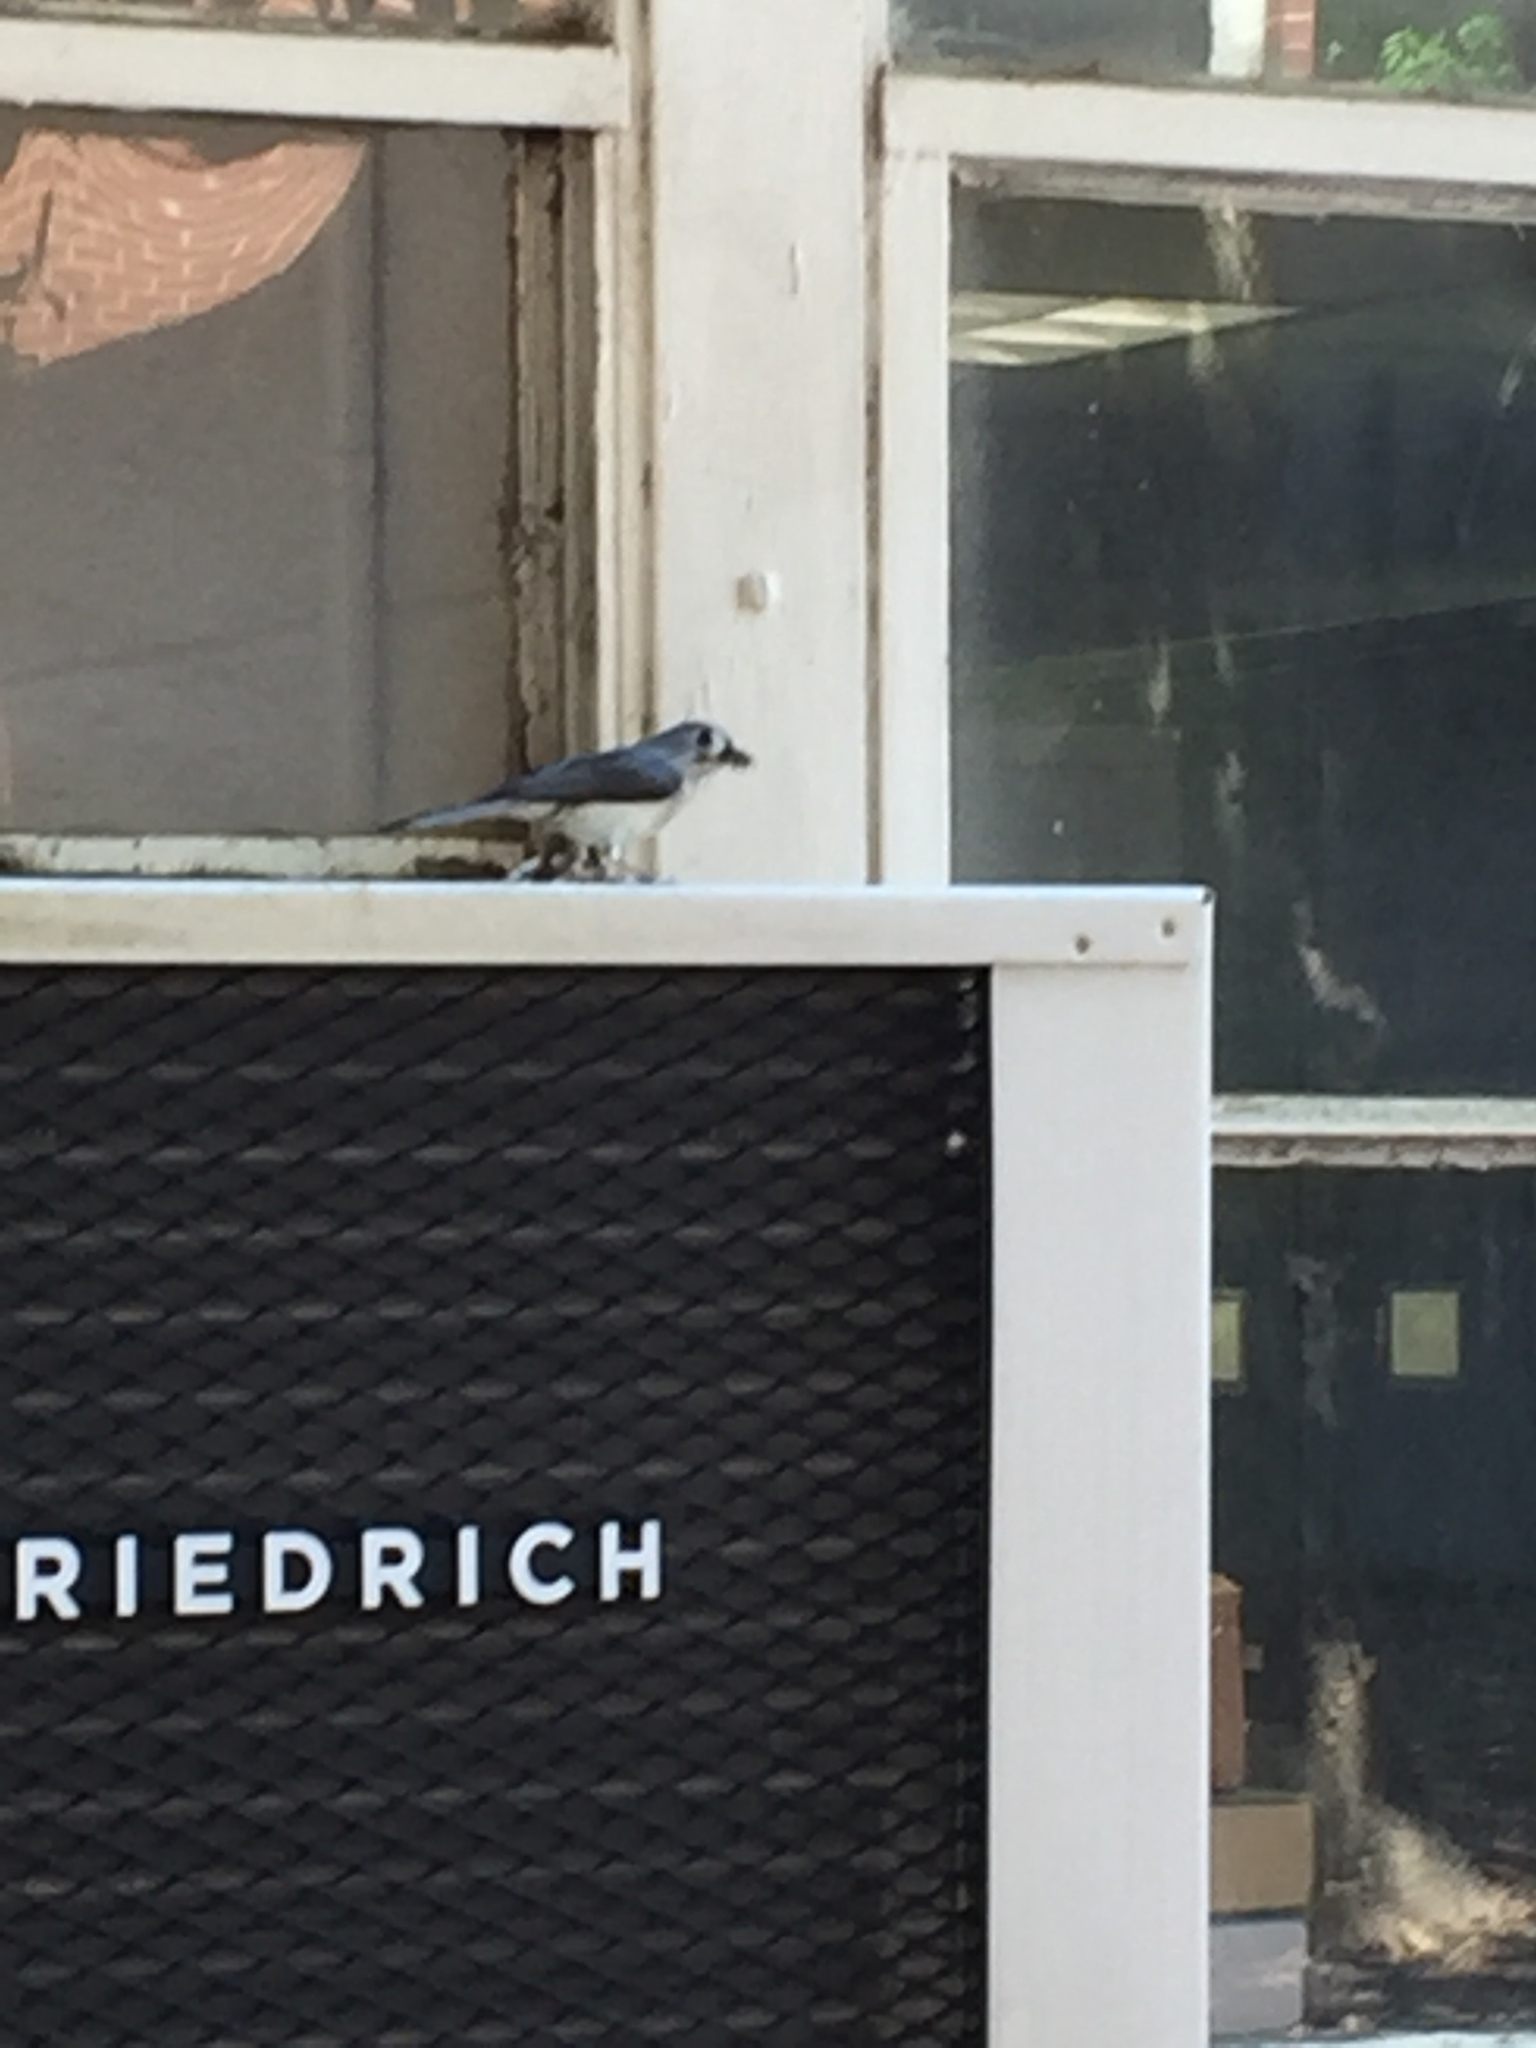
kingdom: Animalia
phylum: Chordata
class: Aves
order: Passeriformes
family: Paridae
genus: Baeolophus
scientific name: Baeolophus bicolor
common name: Tufted titmouse
